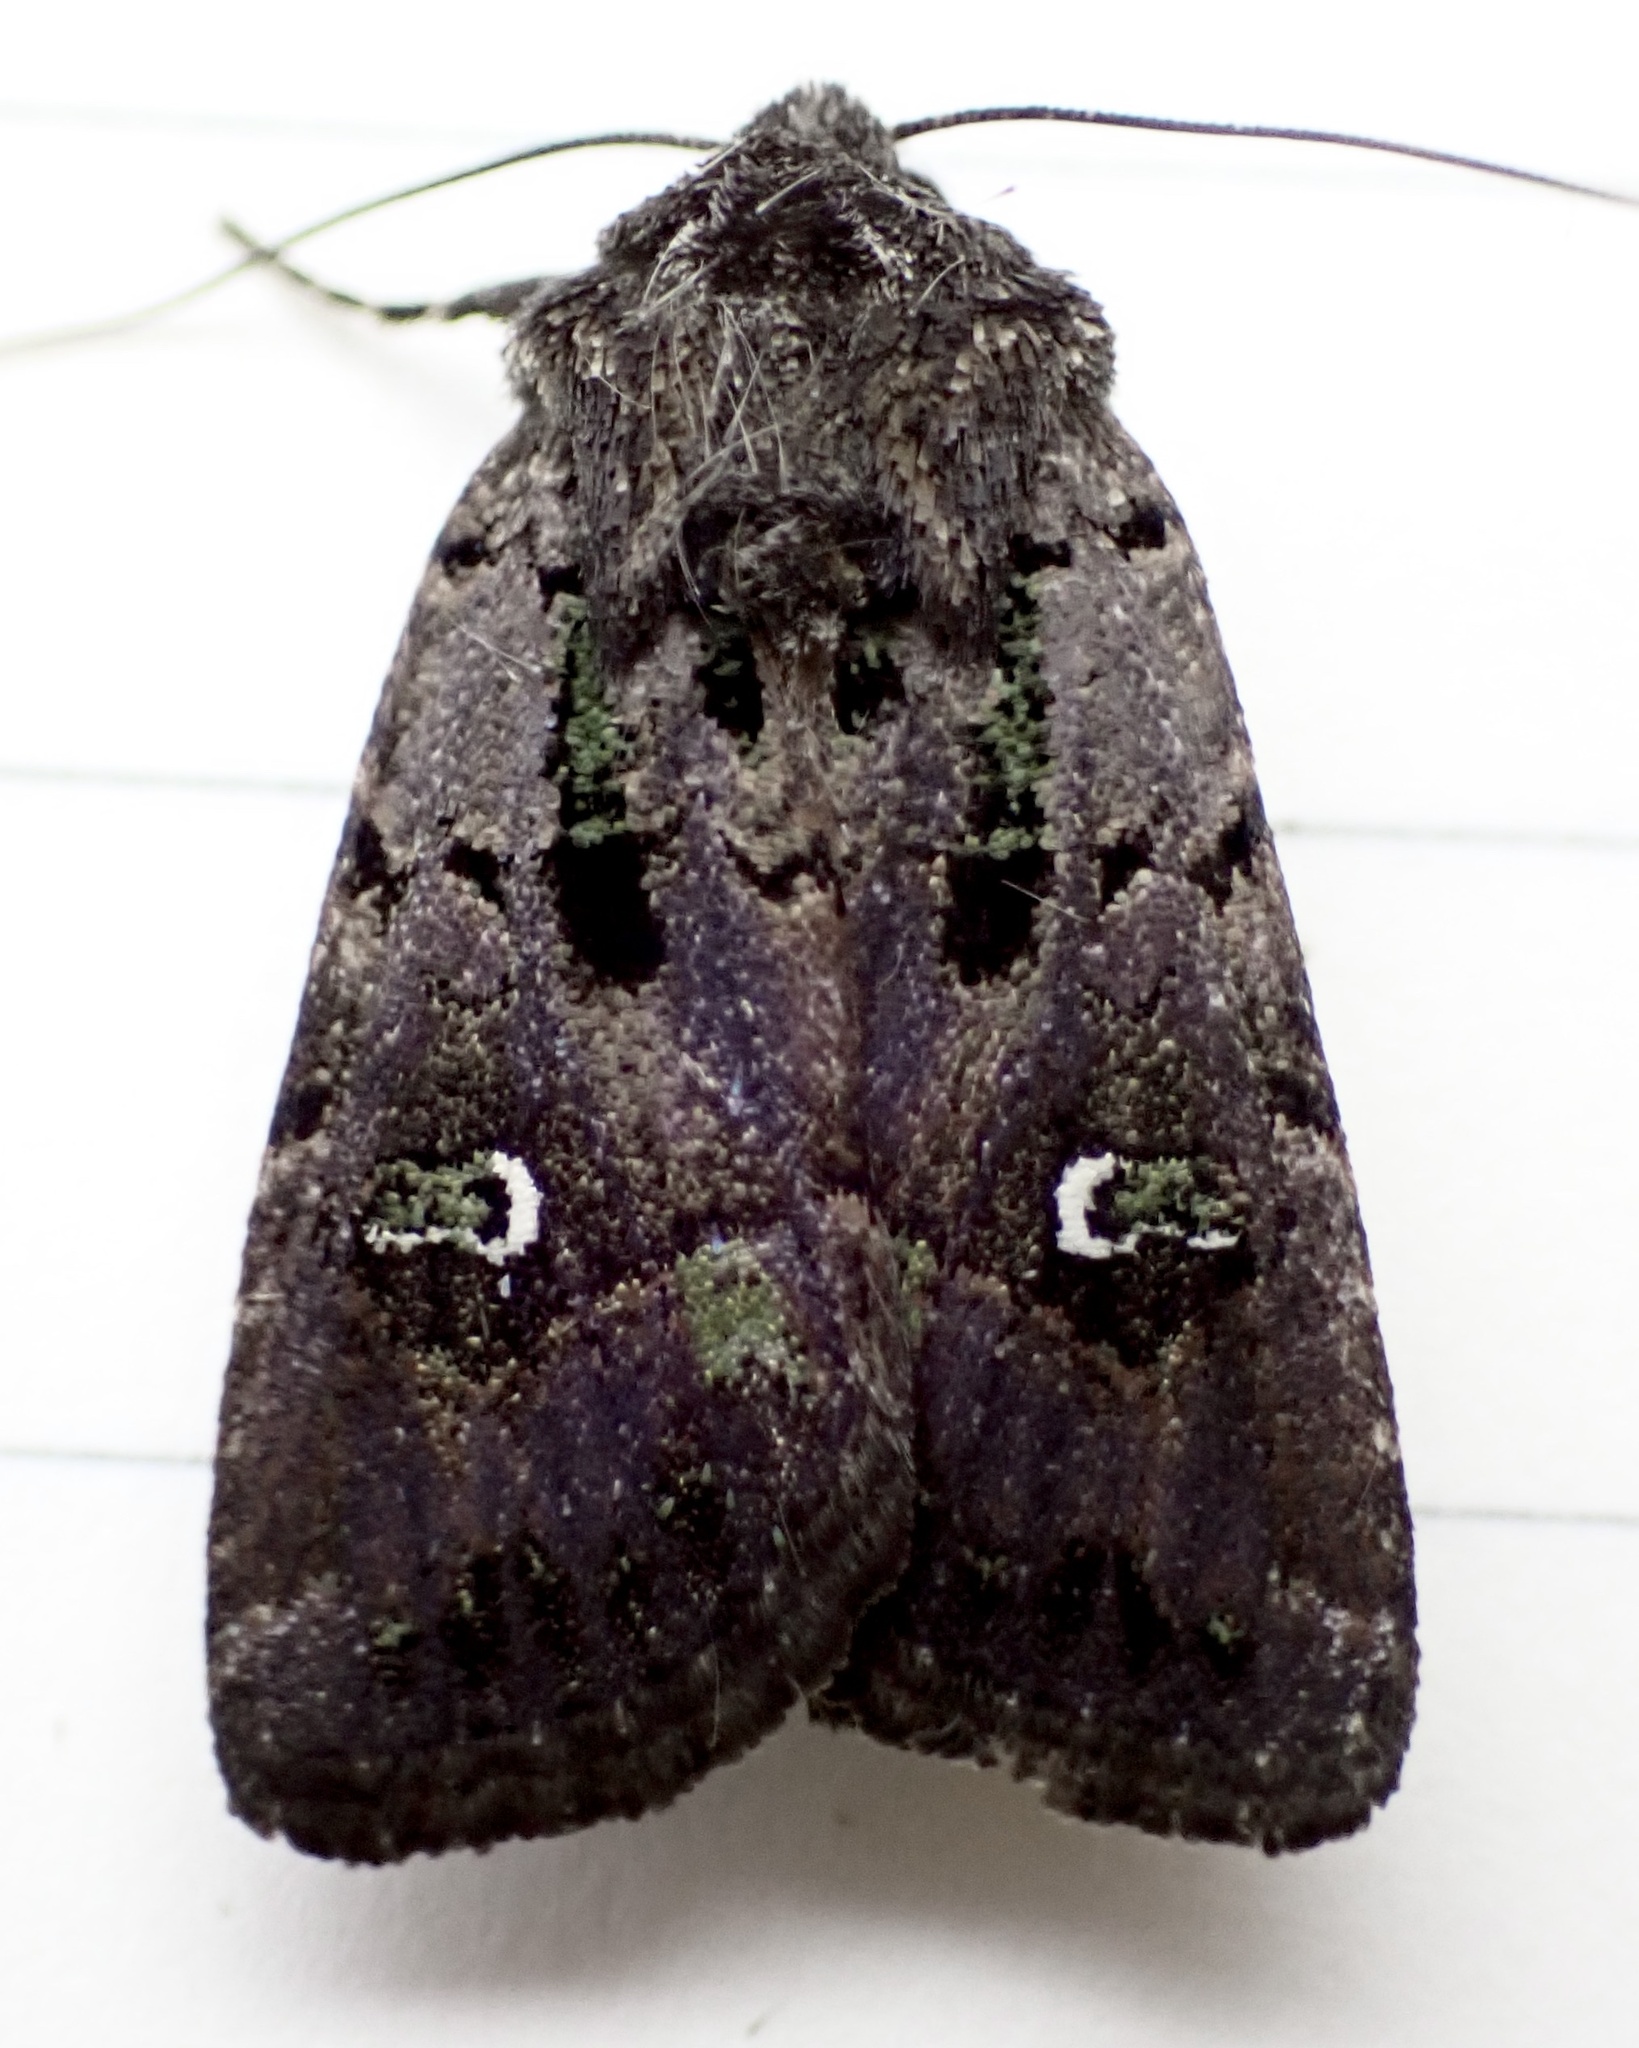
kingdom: Animalia
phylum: Arthropoda
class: Insecta
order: Lepidoptera
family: Noctuidae
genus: Lacinipolia
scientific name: Lacinipolia renigera
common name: Kidney-spotted minor
